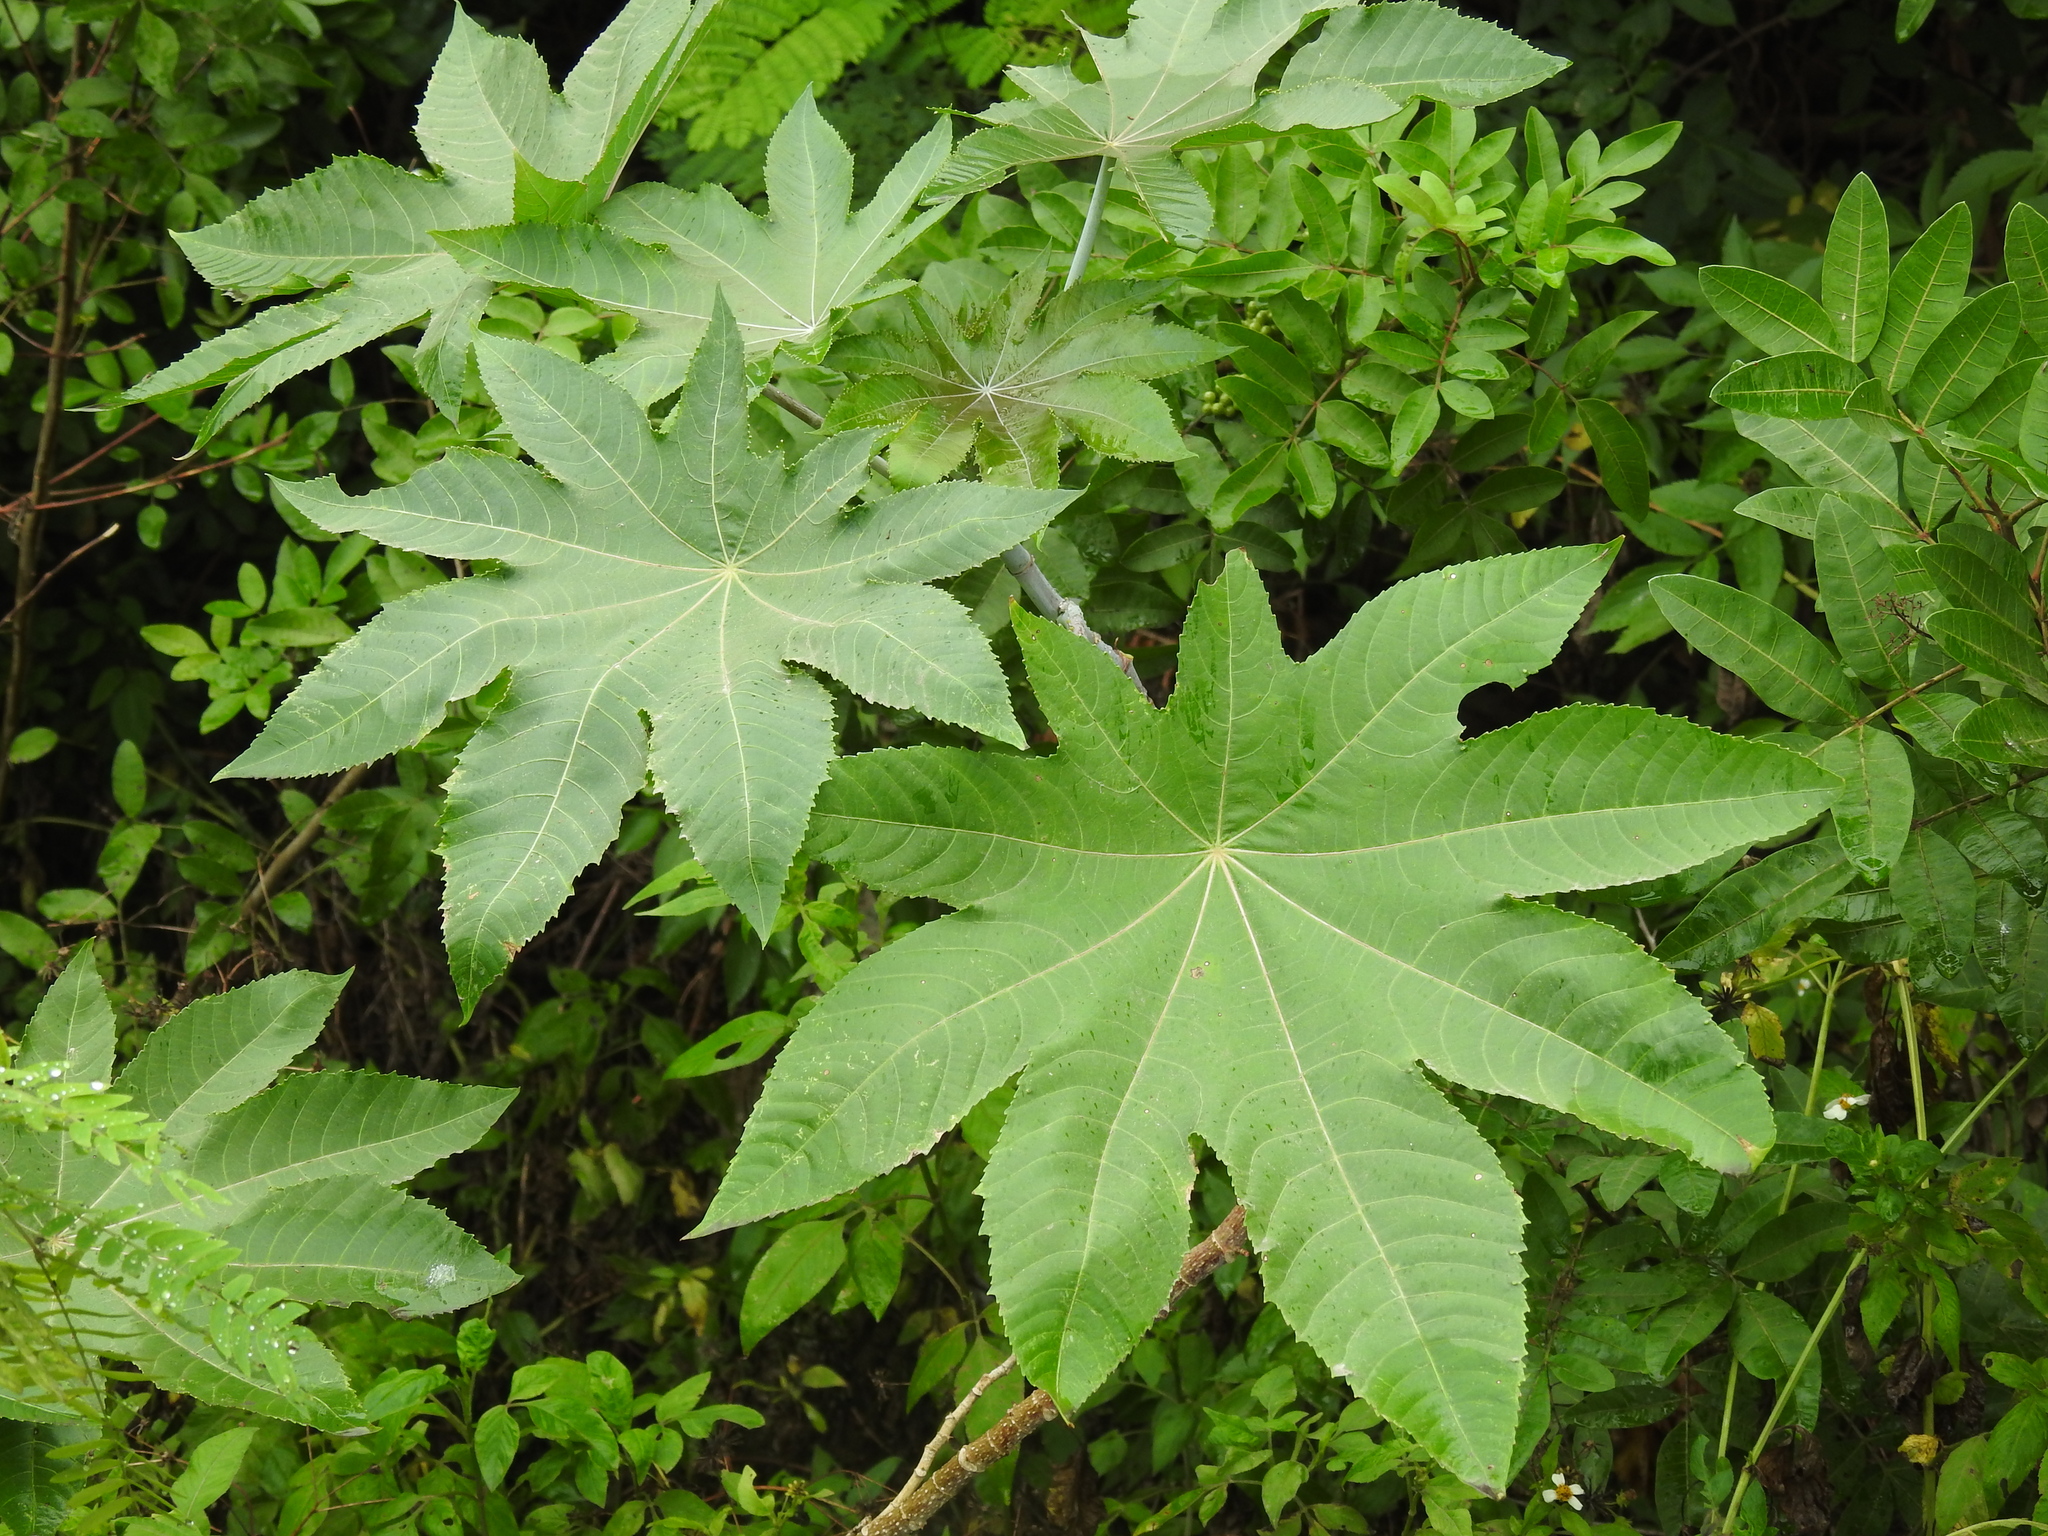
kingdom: Plantae
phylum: Tracheophyta
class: Magnoliopsida
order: Malpighiales
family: Euphorbiaceae
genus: Ricinus
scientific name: Ricinus communis
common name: Castor-oil-plant
